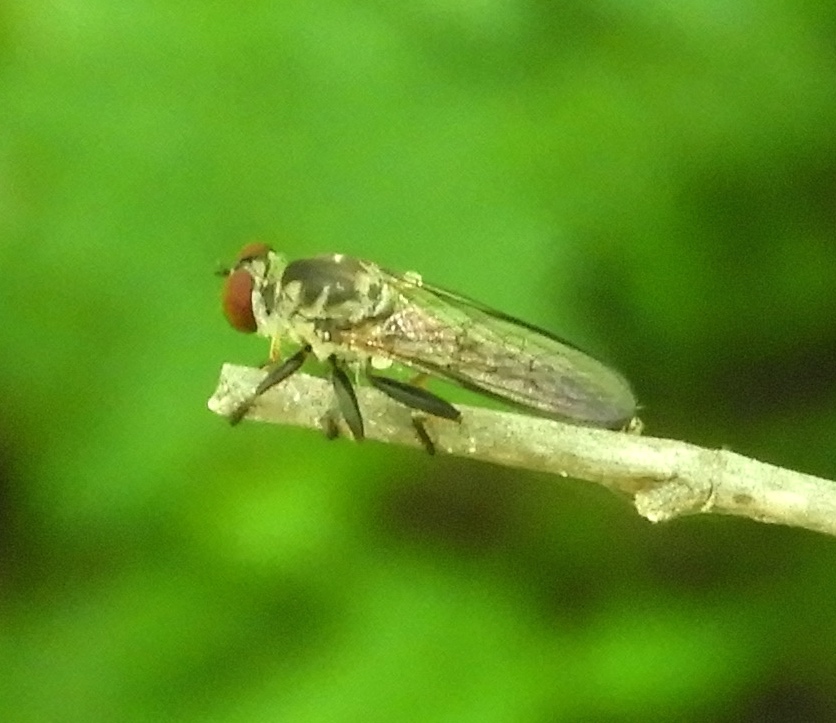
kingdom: Animalia
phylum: Arthropoda
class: Insecta
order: Diptera
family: Asilidae
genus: Ommatius
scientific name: Ommatius
